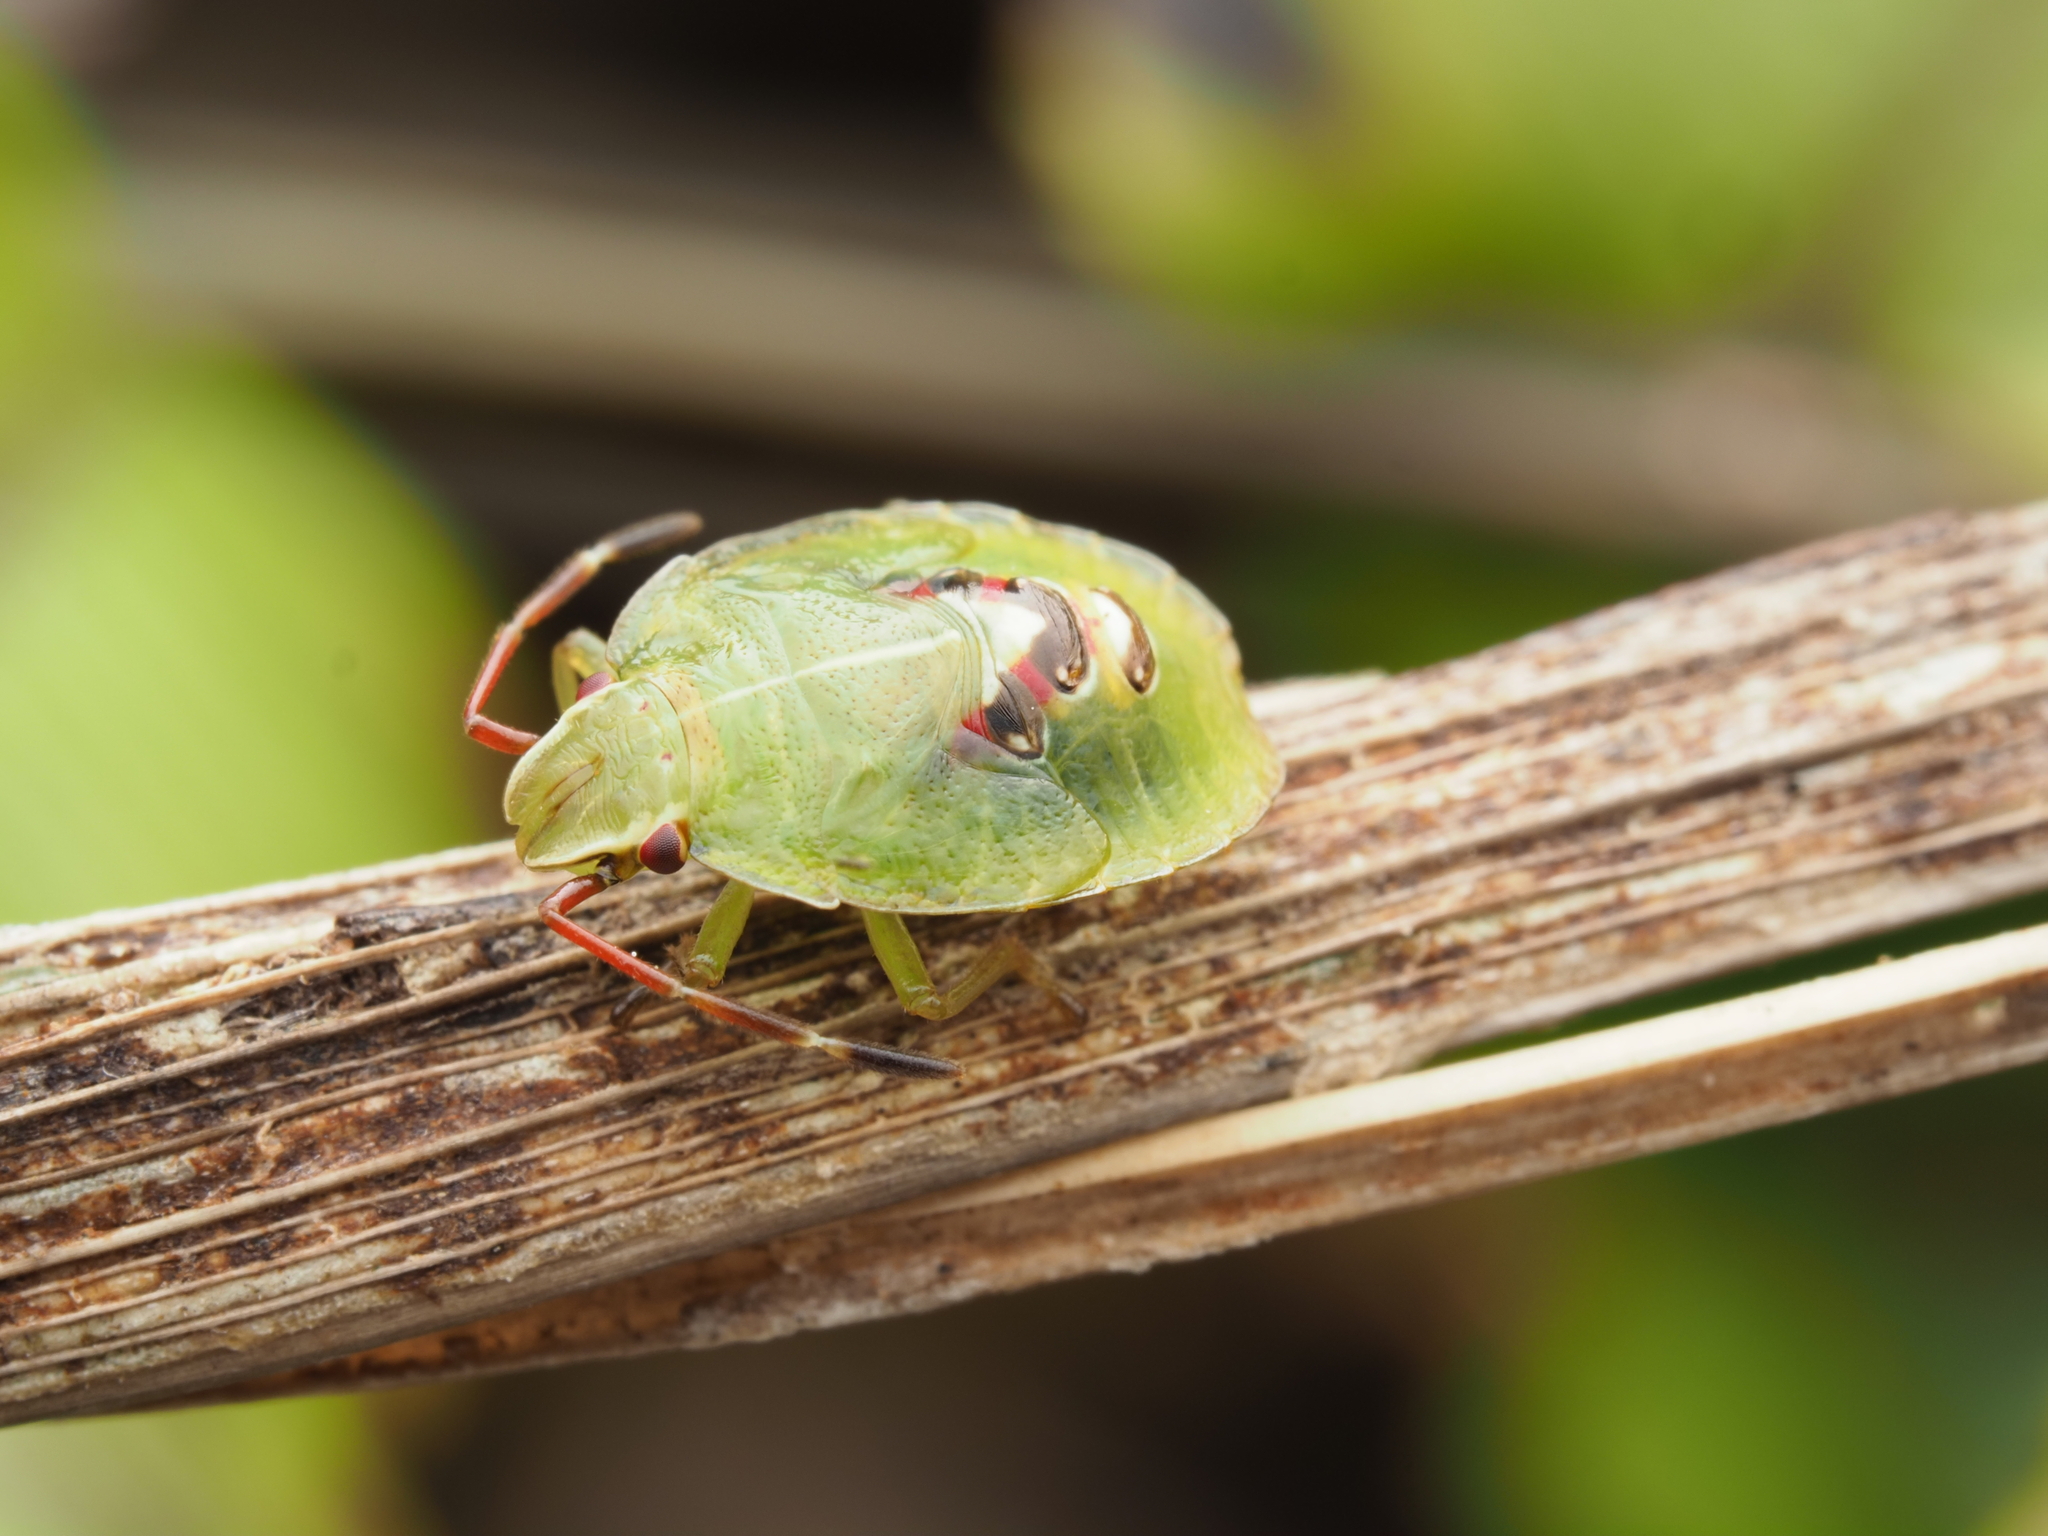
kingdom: Animalia
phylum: Arthropoda
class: Insecta
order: Hemiptera
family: Acanthosomatidae
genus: Oncacontias
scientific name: Oncacontias vittatus
